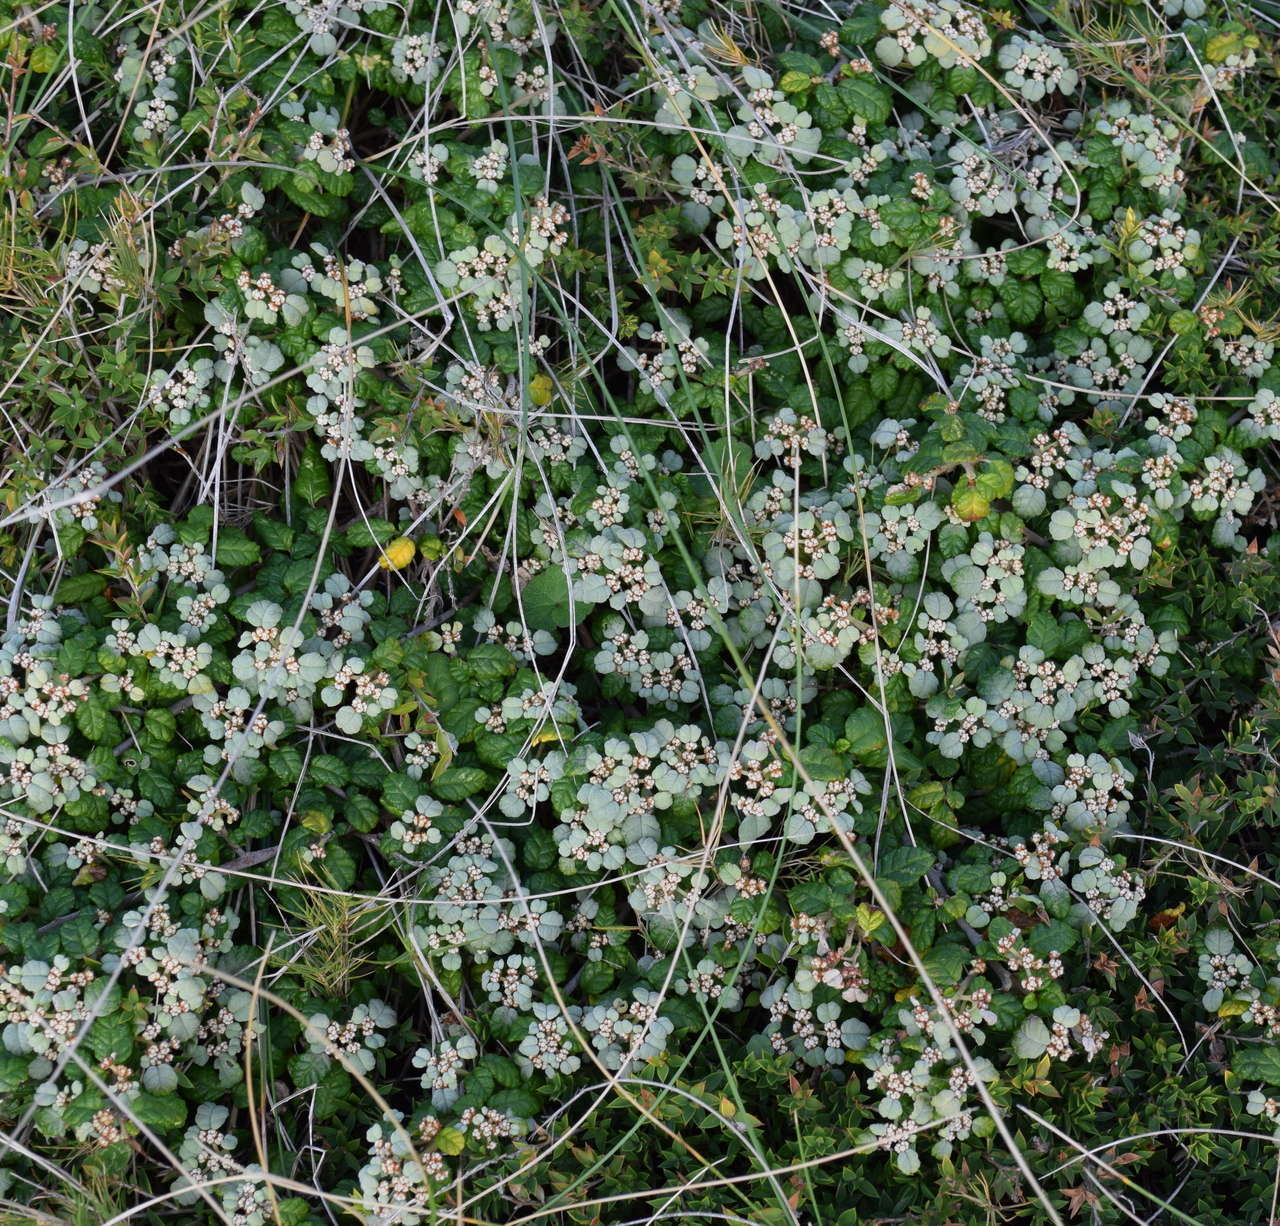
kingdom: Plantae
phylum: Tracheophyta
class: Magnoliopsida
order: Rosales
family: Rhamnaceae
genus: Spyridium
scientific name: Spyridium parvifolium
